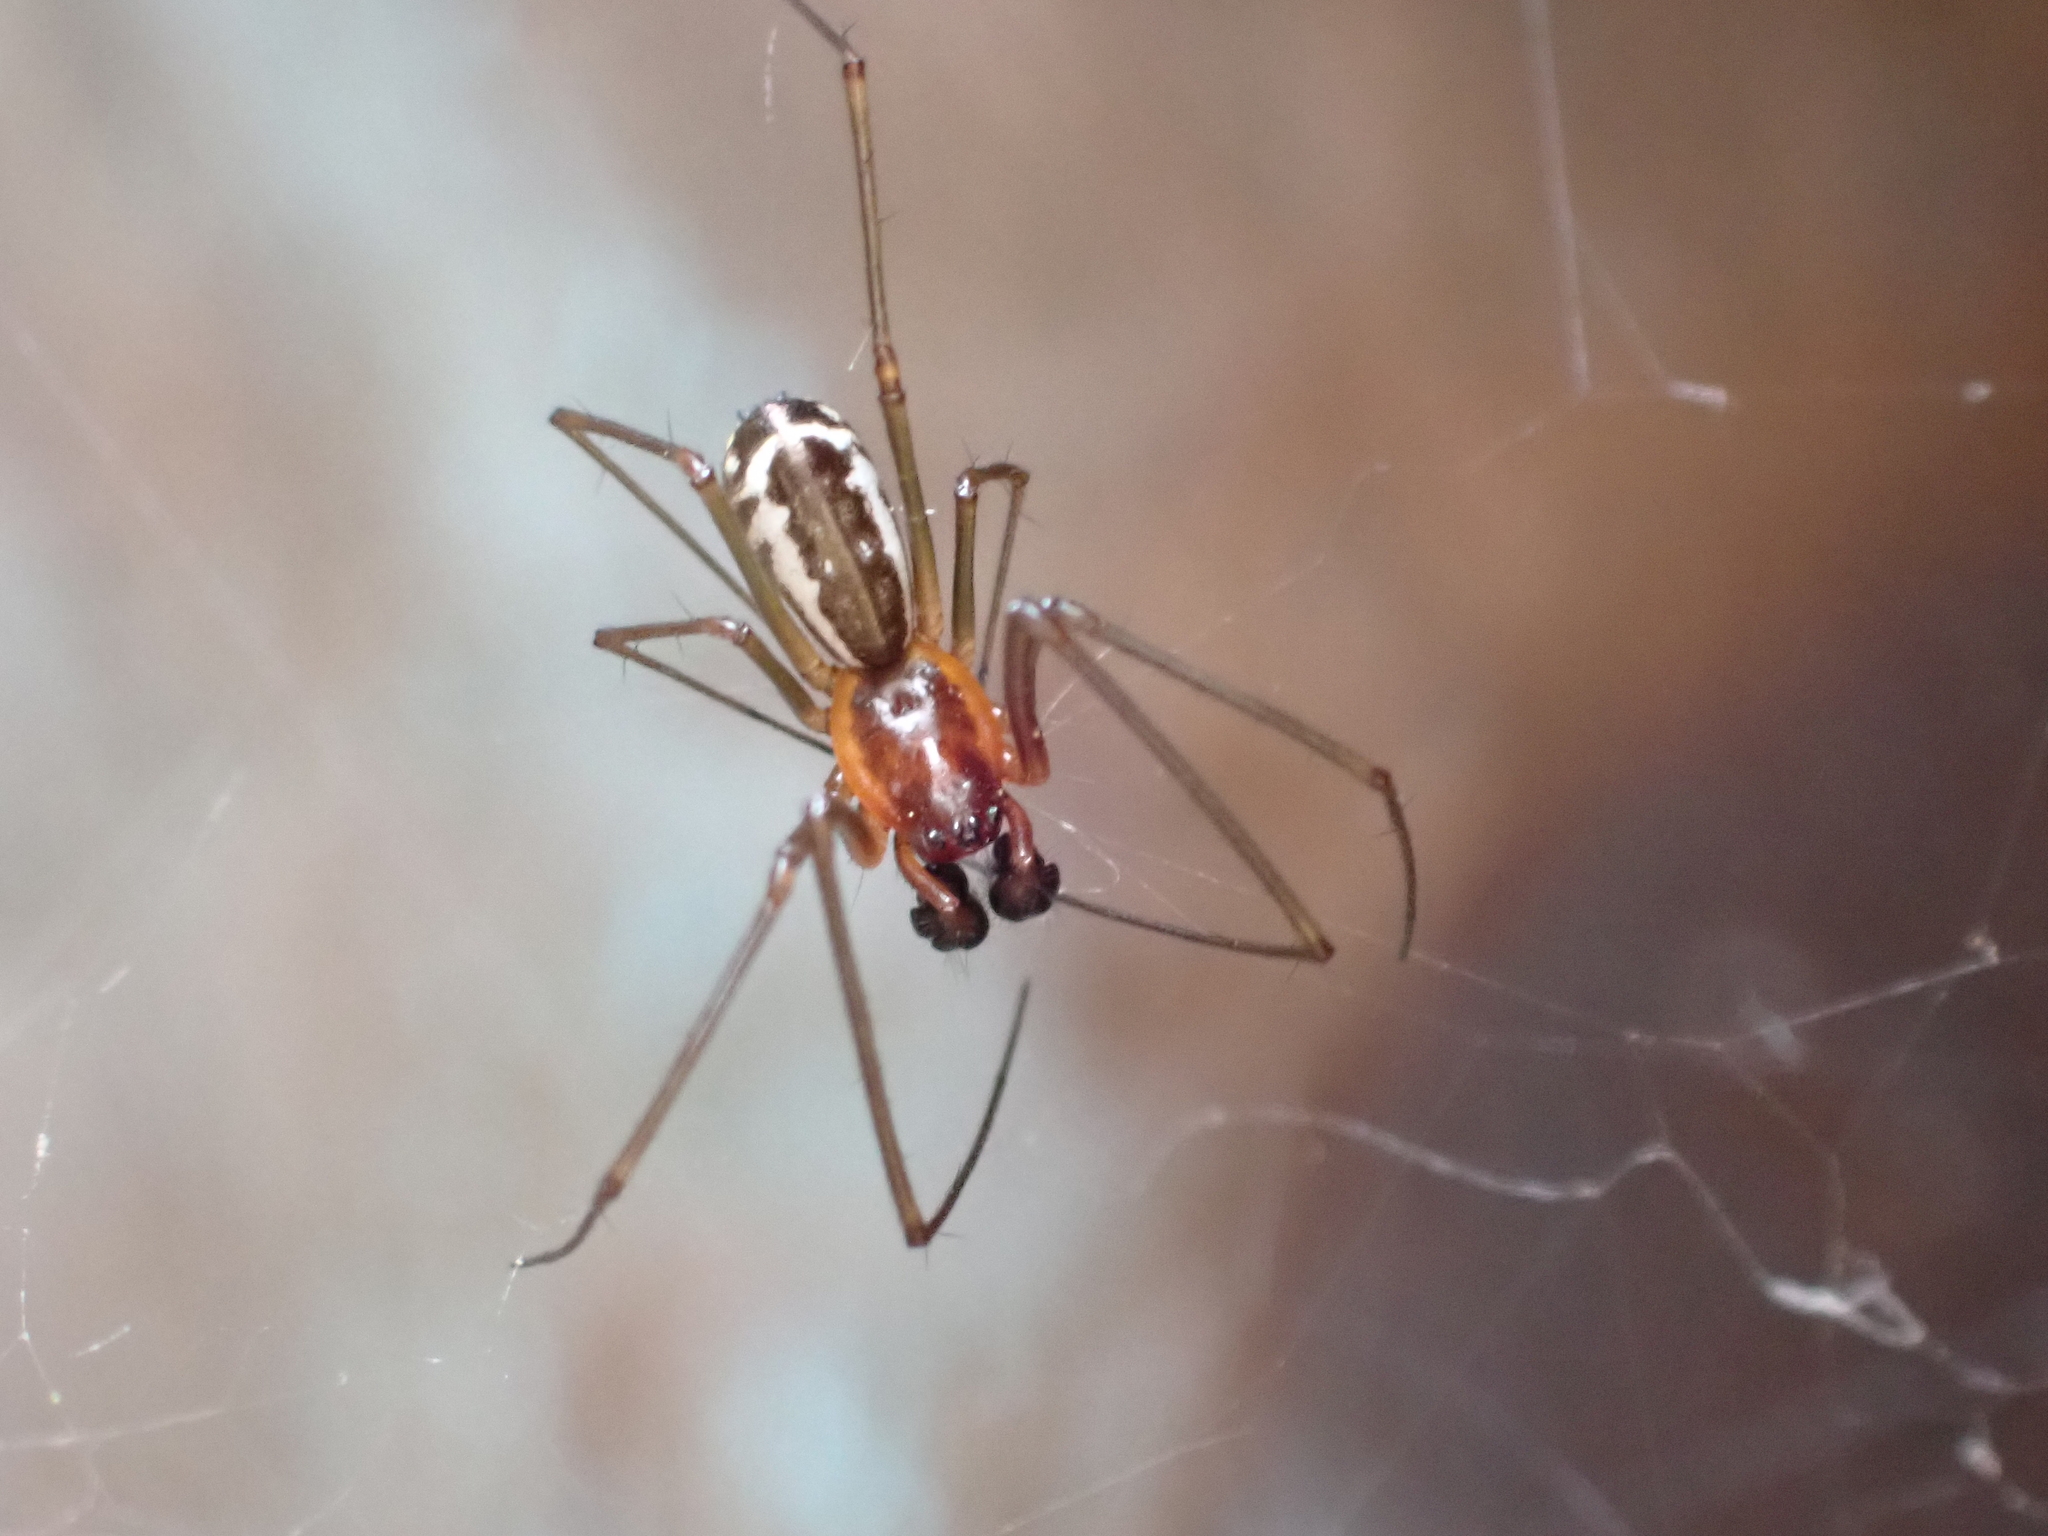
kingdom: Animalia
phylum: Arthropoda
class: Arachnida
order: Araneae
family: Linyphiidae
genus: Neriene
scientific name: Neriene radiata
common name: Filmy dome spider
